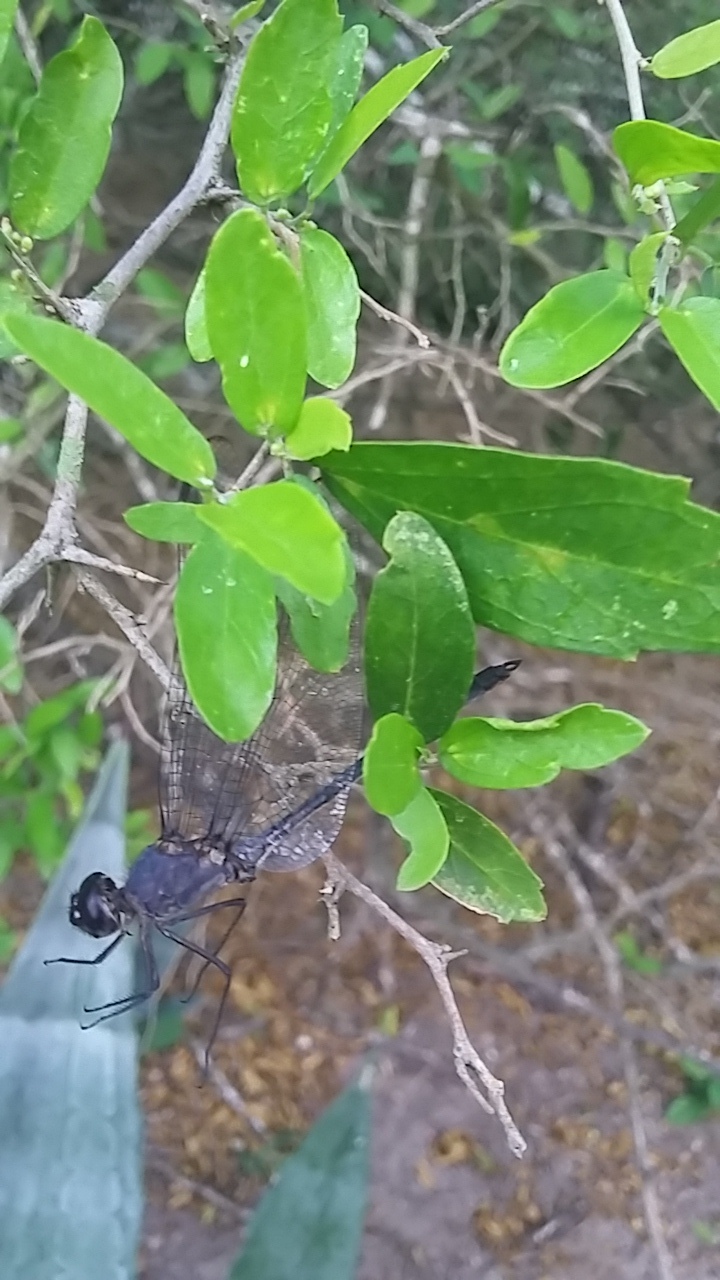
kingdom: Animalia
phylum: Arthropoda
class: Insecta
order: Odonata
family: Libellulidae
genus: Dythemis
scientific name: Dythemis nigrescens
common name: Black setwing
